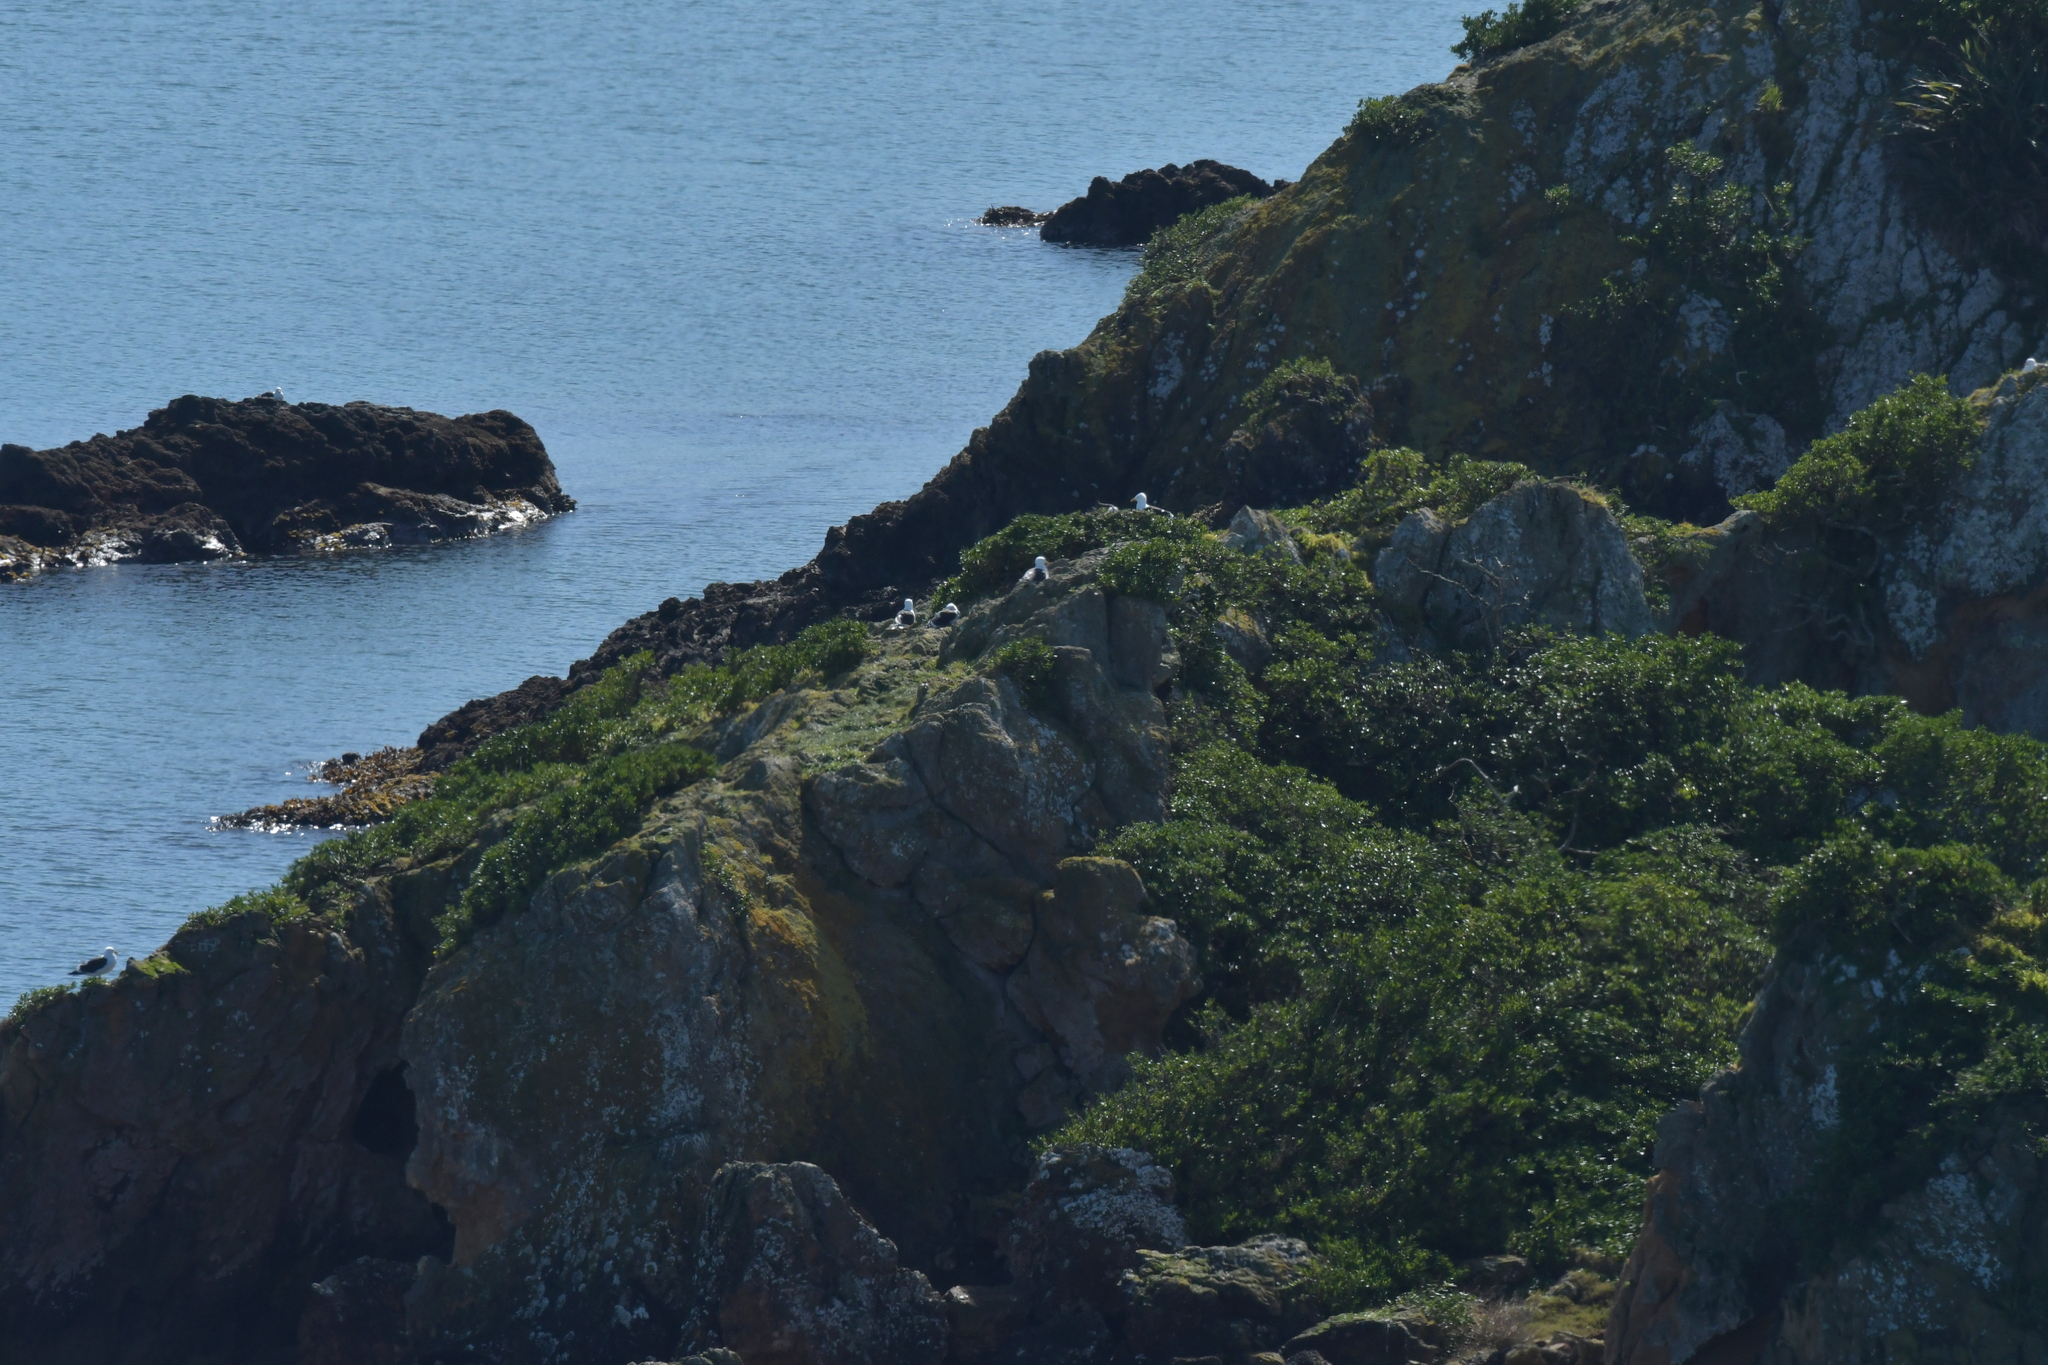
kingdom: Animalia
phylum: Chordata
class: Aves
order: Charadriiformes
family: Laridae
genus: Larus
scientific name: Larus dominicanus
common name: Kelp gull
